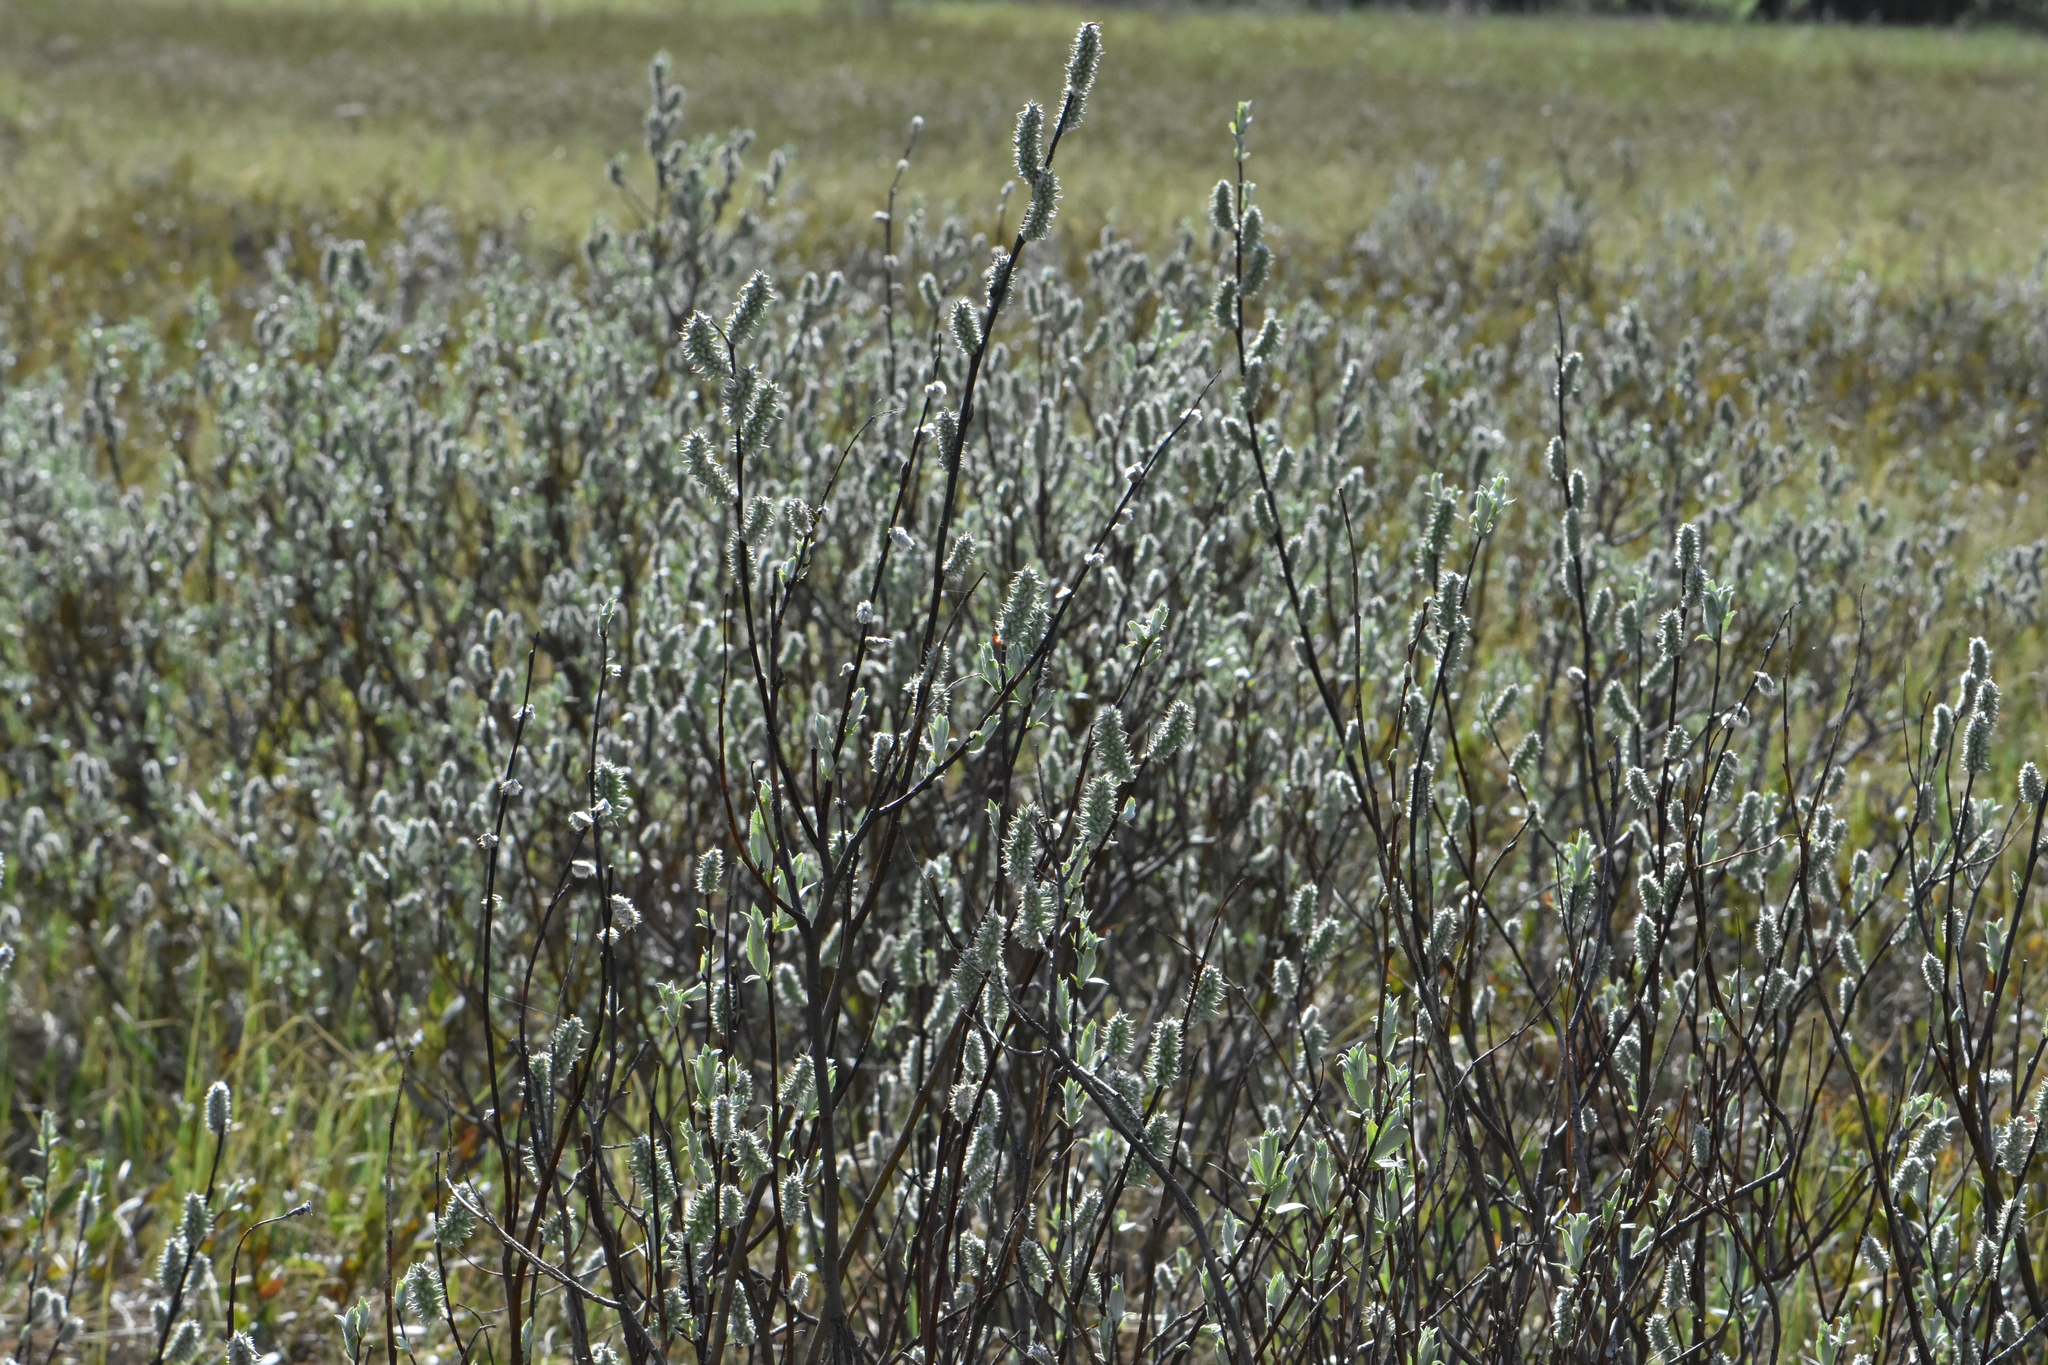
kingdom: Plantae
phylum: Tracheophyta
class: Magnoliopsida
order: Malpighiales
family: Salicaceae
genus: Salix
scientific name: Salix lapponum
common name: Downy willow
